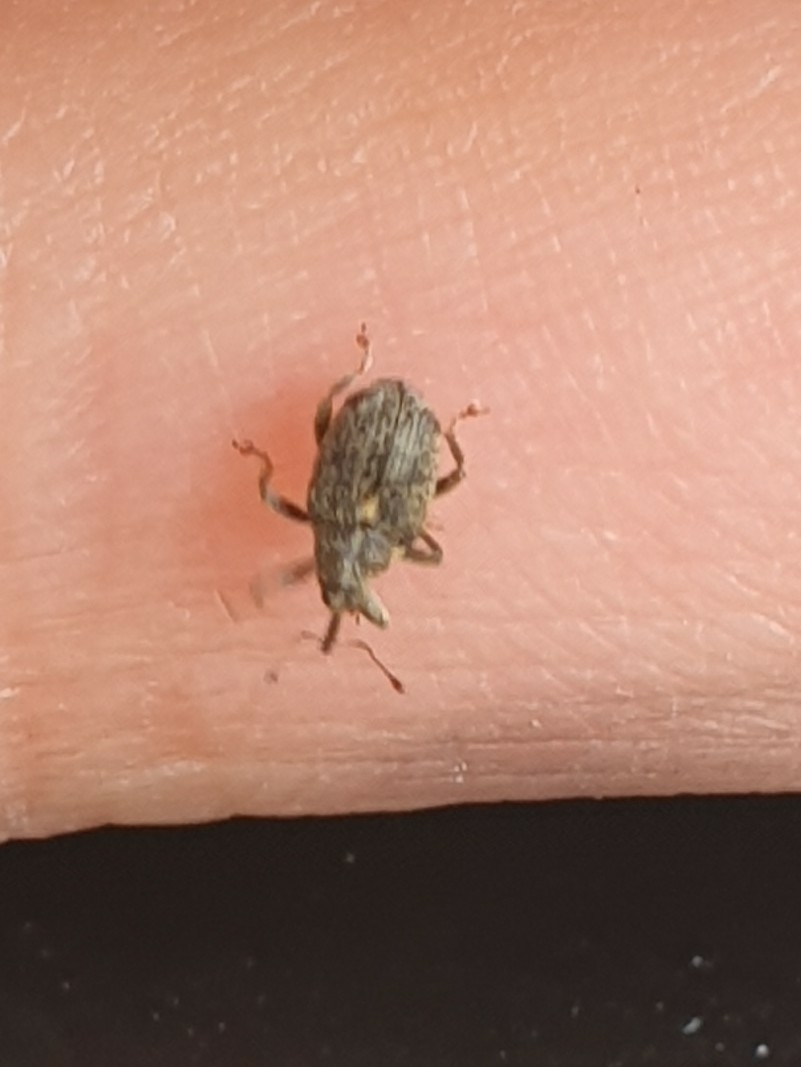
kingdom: Animalia
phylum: Arthropoda
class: Insecta
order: Coleoptera
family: Curculionidae
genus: Ceutorhynchus
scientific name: Ceutorhynchus pallidactylus
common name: Cabbage stem weavil
